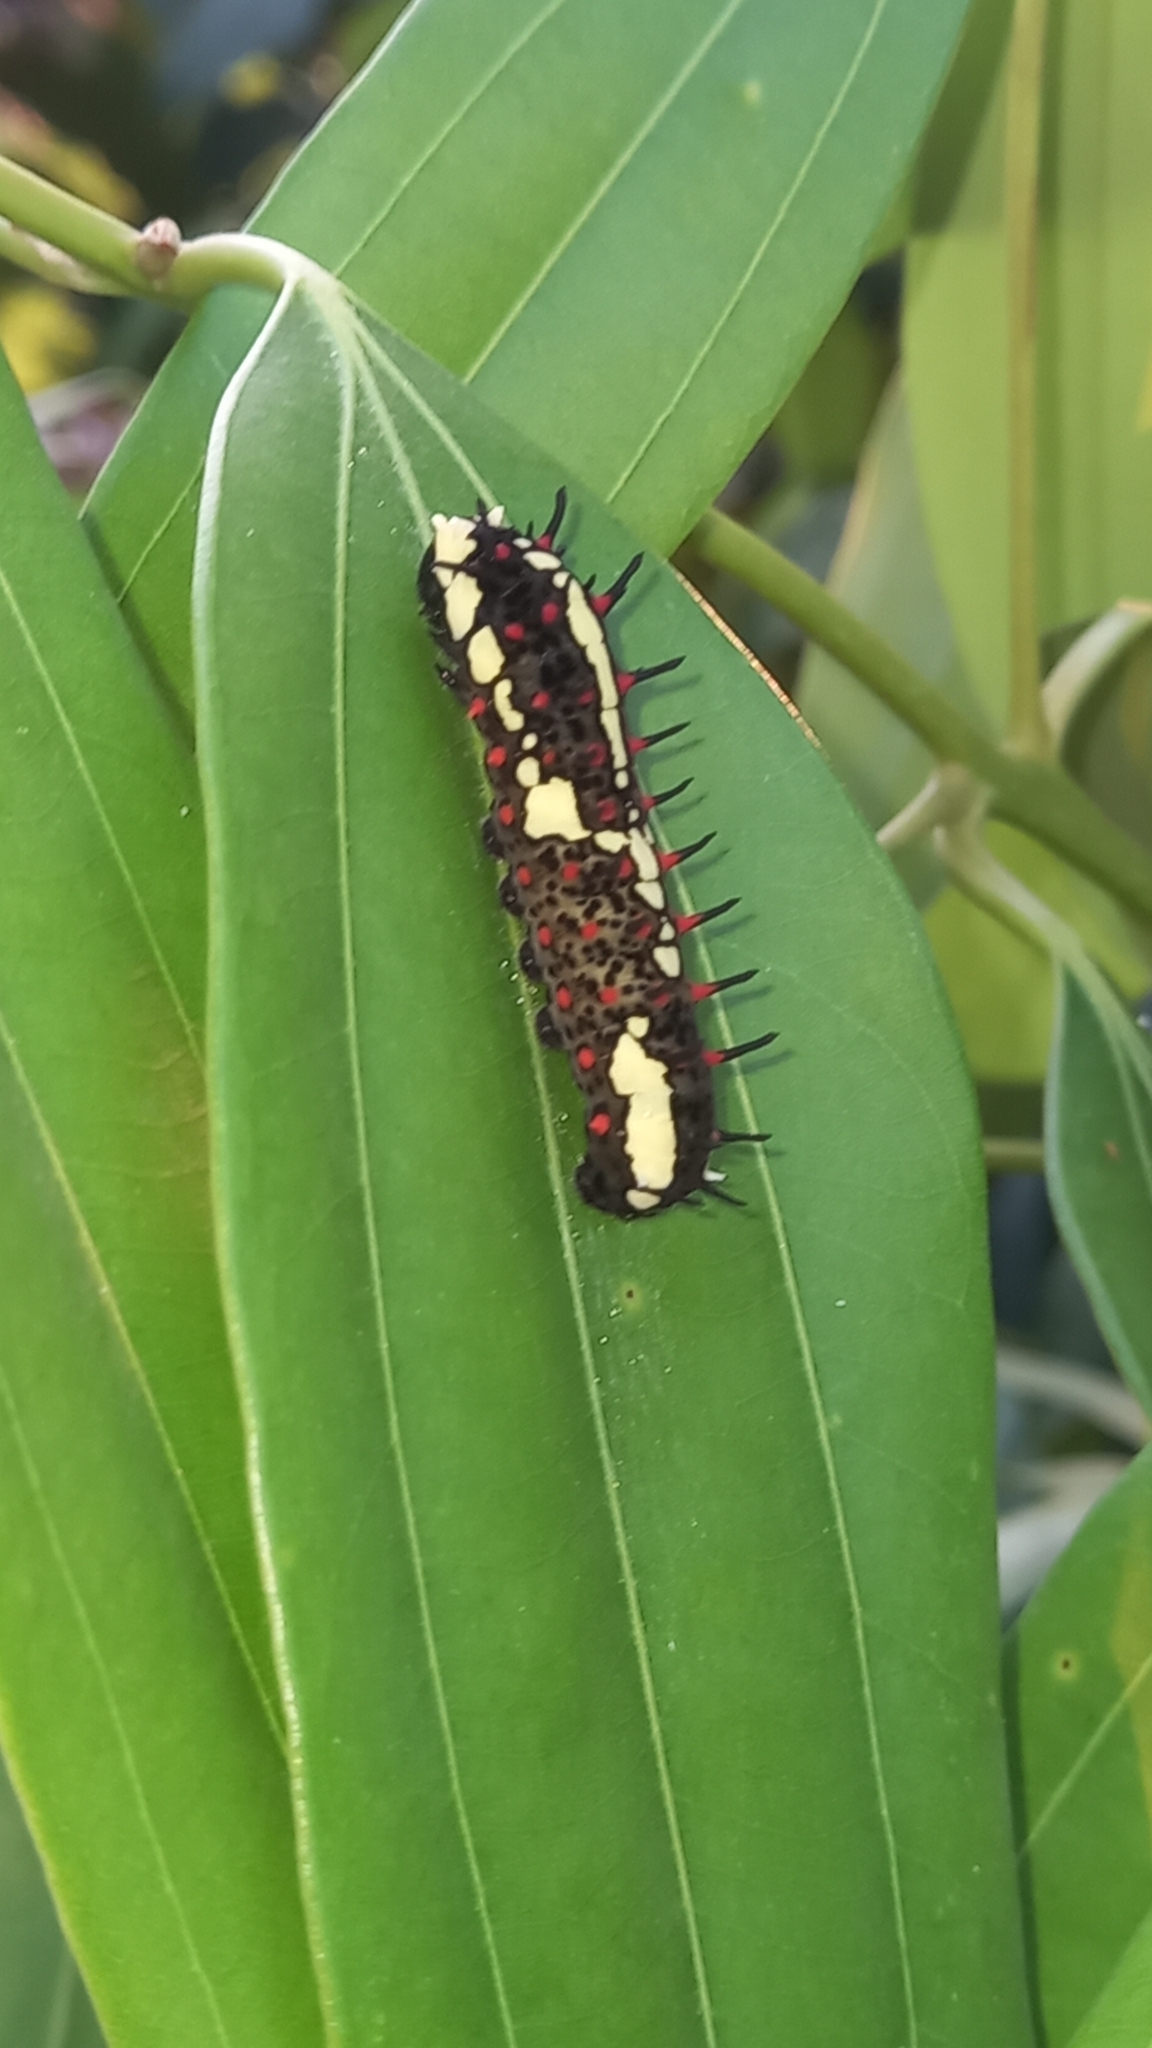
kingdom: Animalia
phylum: Arthropoda
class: Insecta
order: Lepidoptera
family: Papilionidae
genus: Chilasa
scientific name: Chilasa clytia
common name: Common mime
